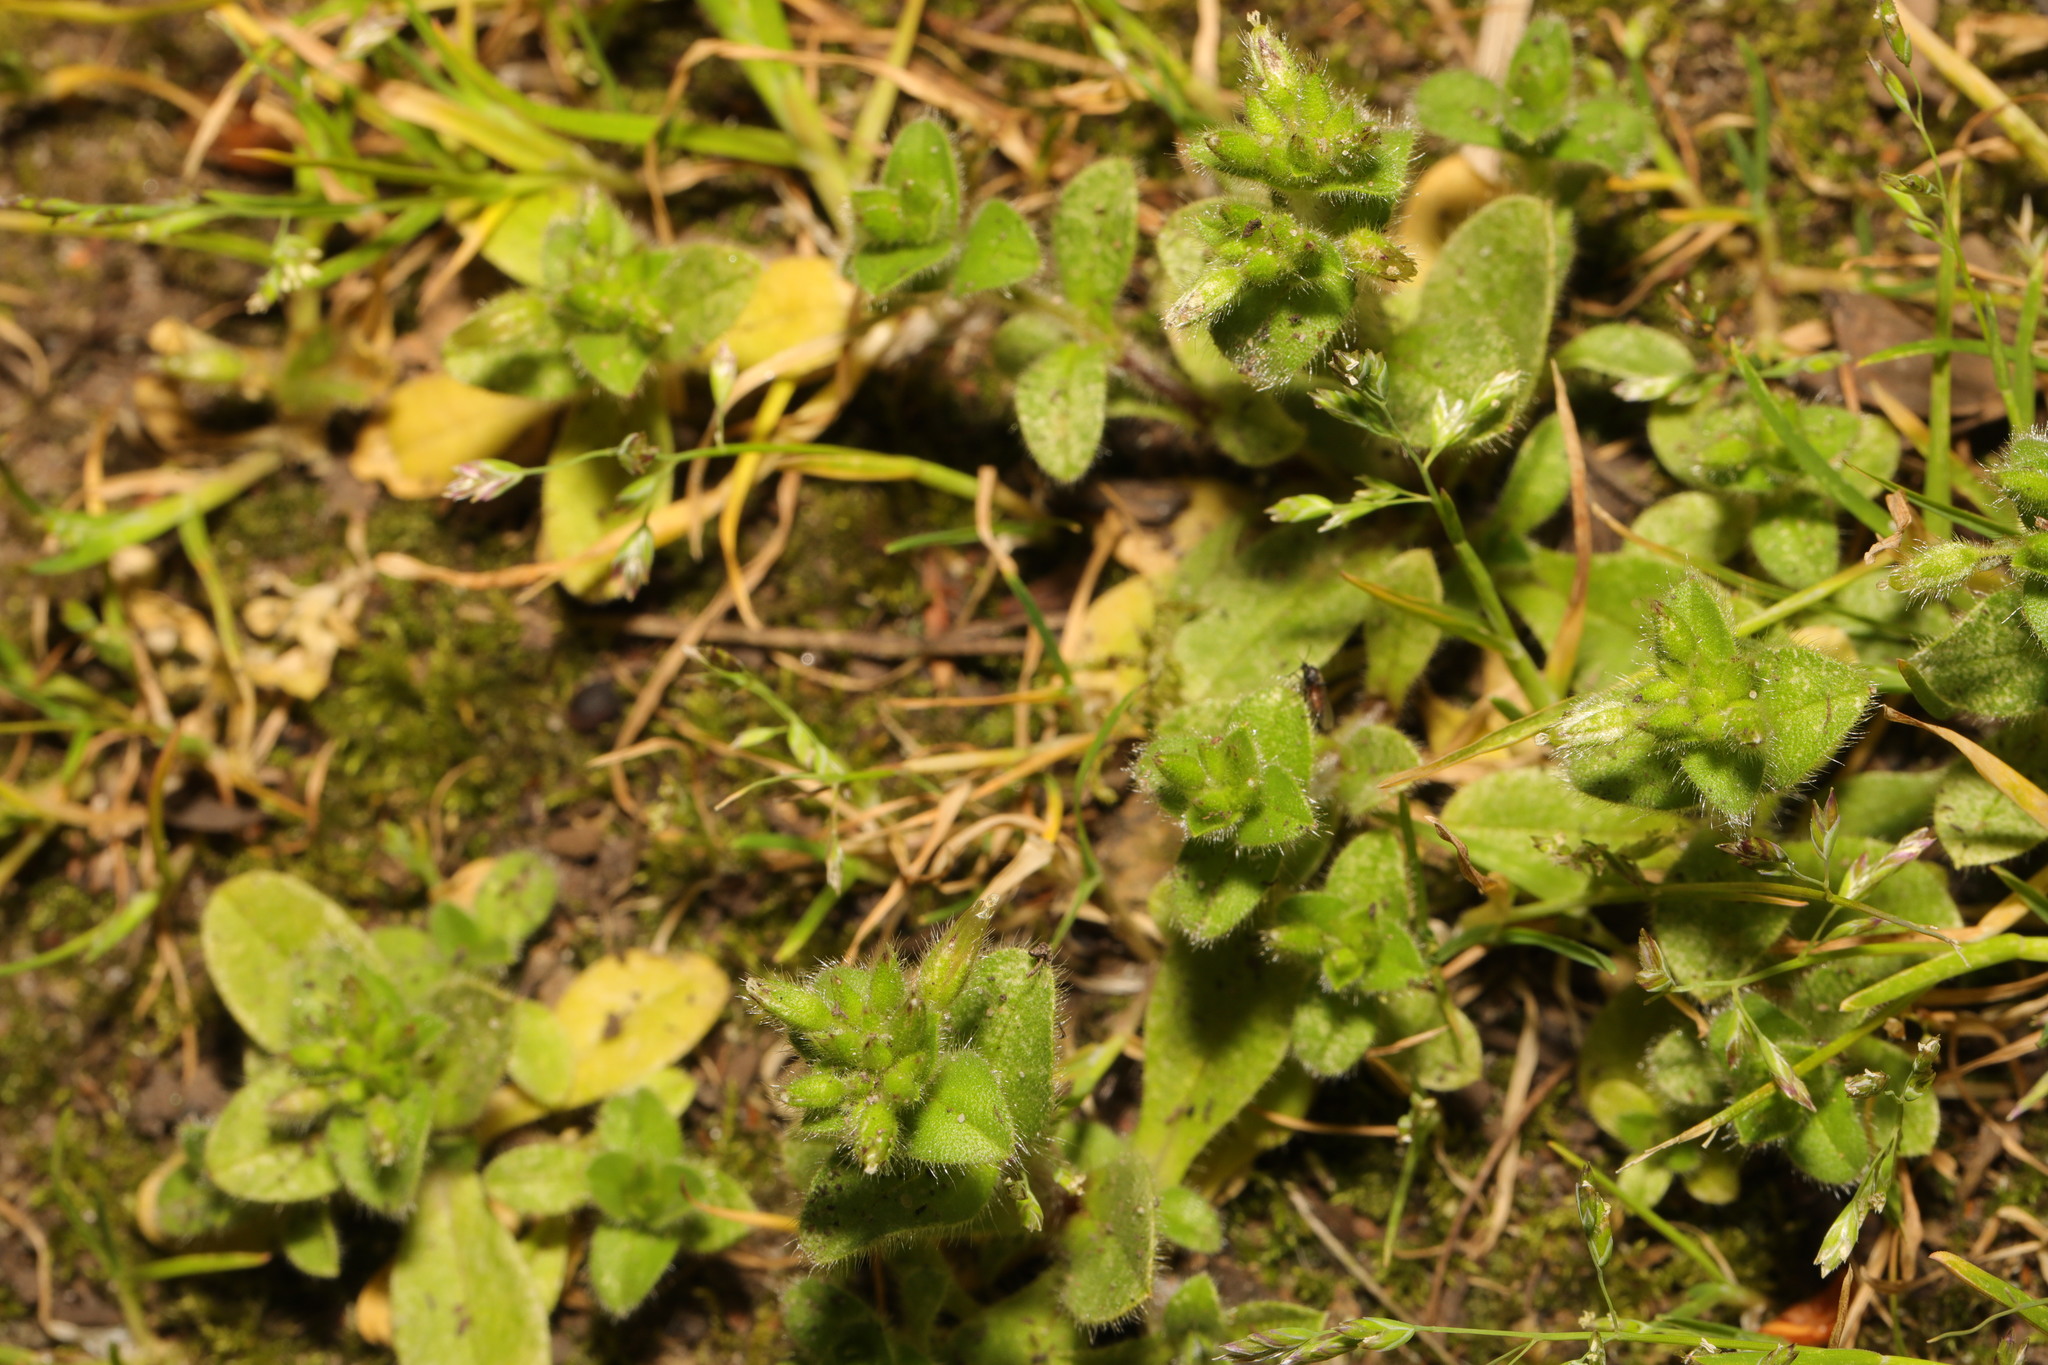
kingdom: Plantae
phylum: Tracheophyta
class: Magnoliopsida
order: Caryophyllales
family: Caryophyllaceae
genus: Cerastium
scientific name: Cerastium glomeratum
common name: Sticky chickweed
